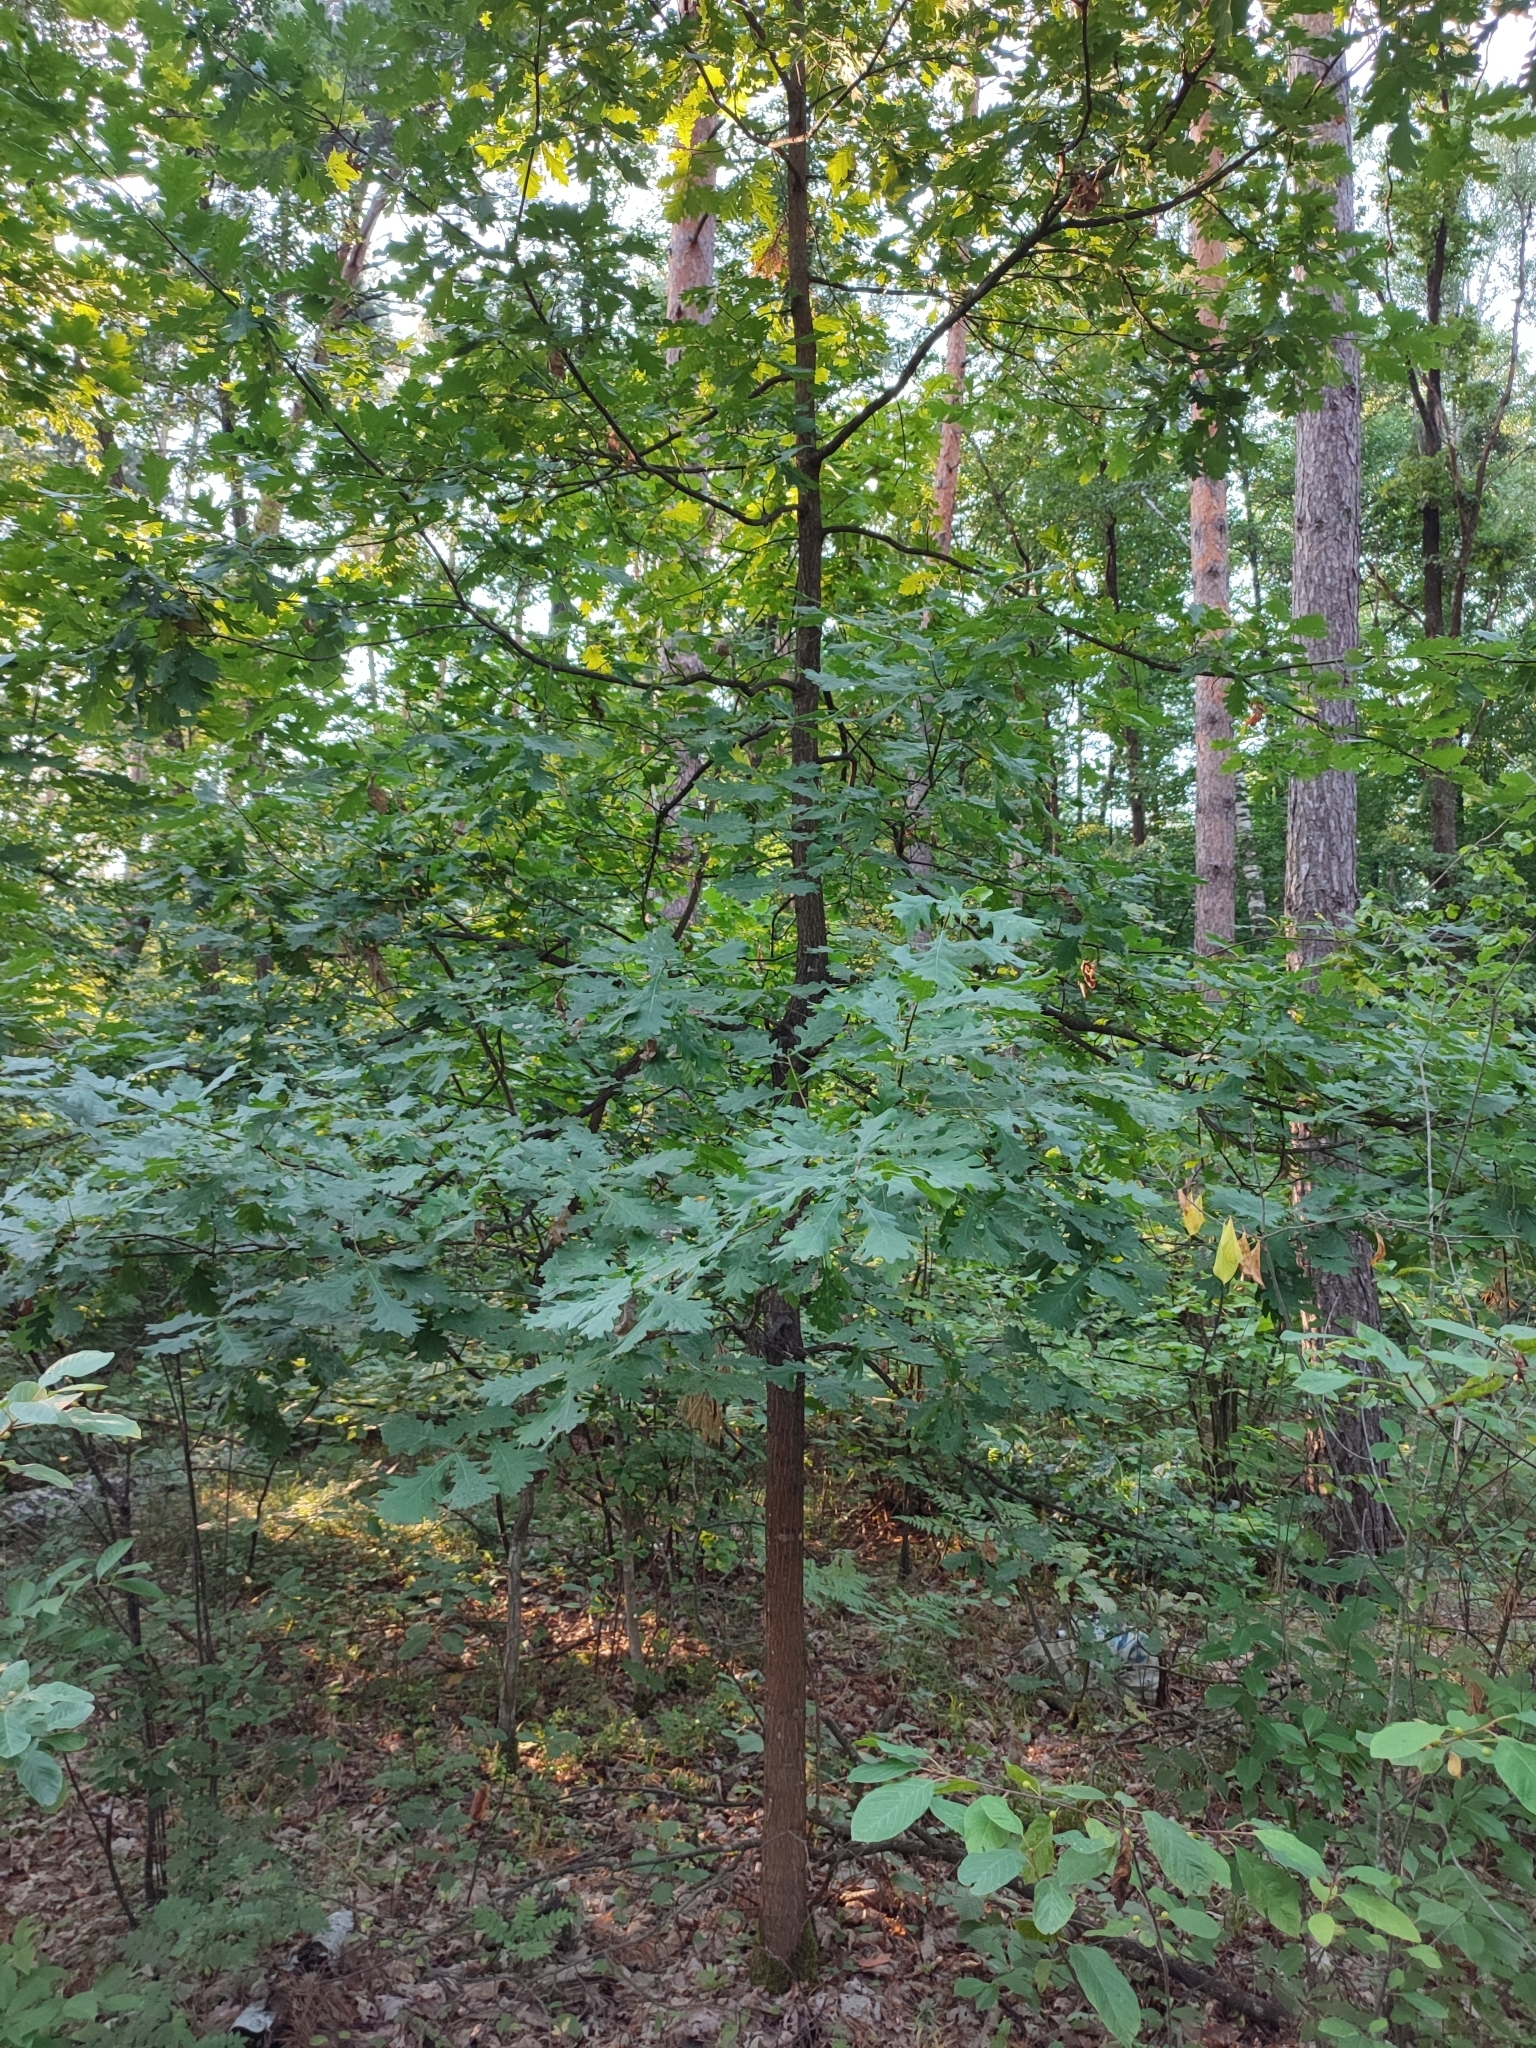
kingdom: Plantae
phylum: Tracheophyta
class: Magnoliopsida
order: Fagales
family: Fagaceae
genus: Quercus
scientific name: Quercus robur
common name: Pedunculate oak
